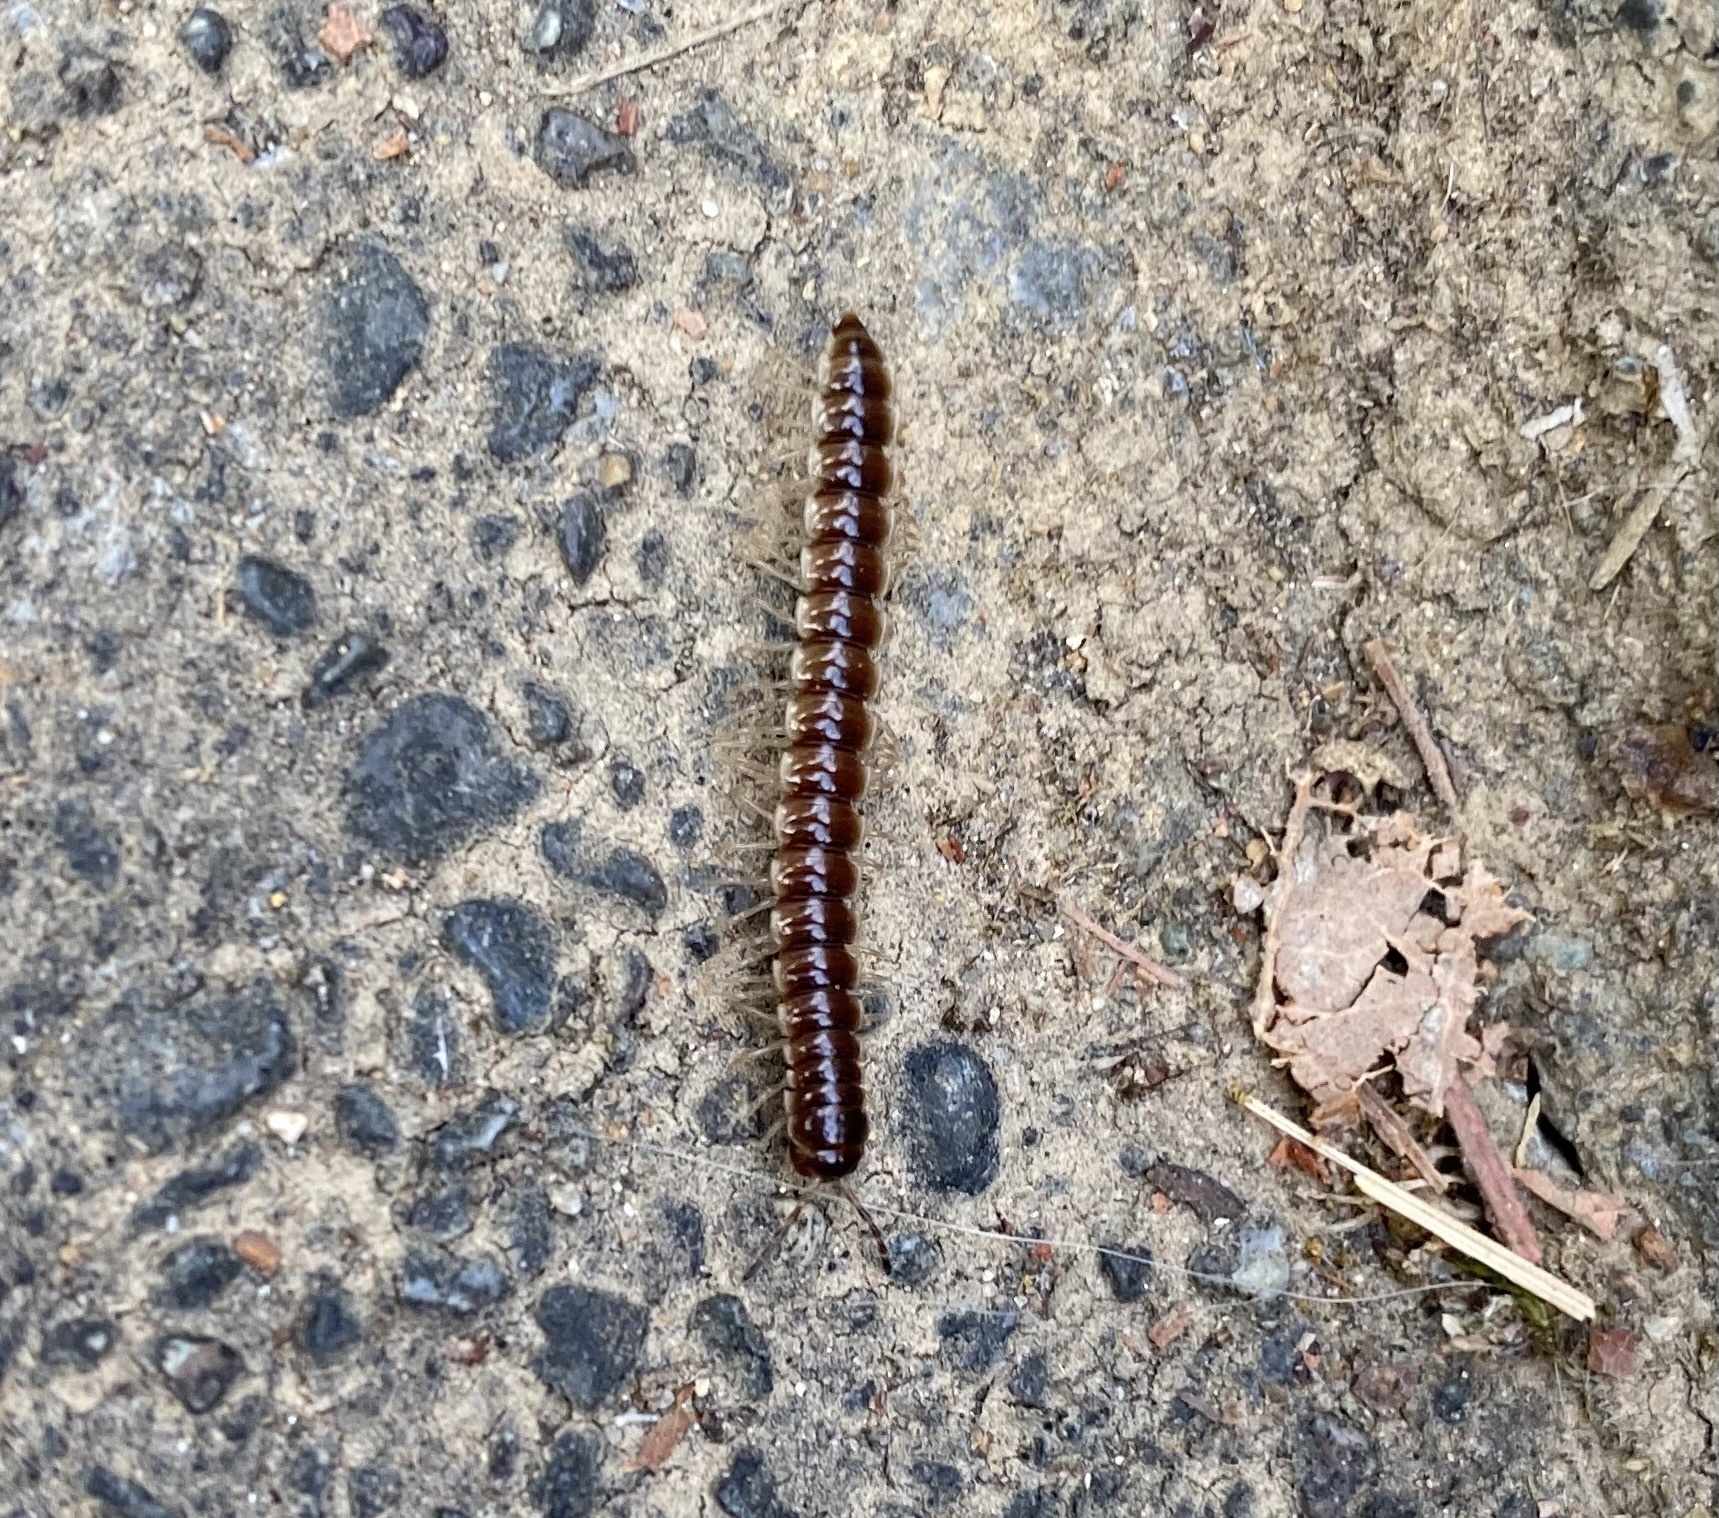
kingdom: Animalia
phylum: Arthropoda
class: Diplopoda
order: Polydesmida
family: Paradoxosomatidae
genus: Oxidus
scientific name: Oxidus gracilis
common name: Greenhouse millipede
